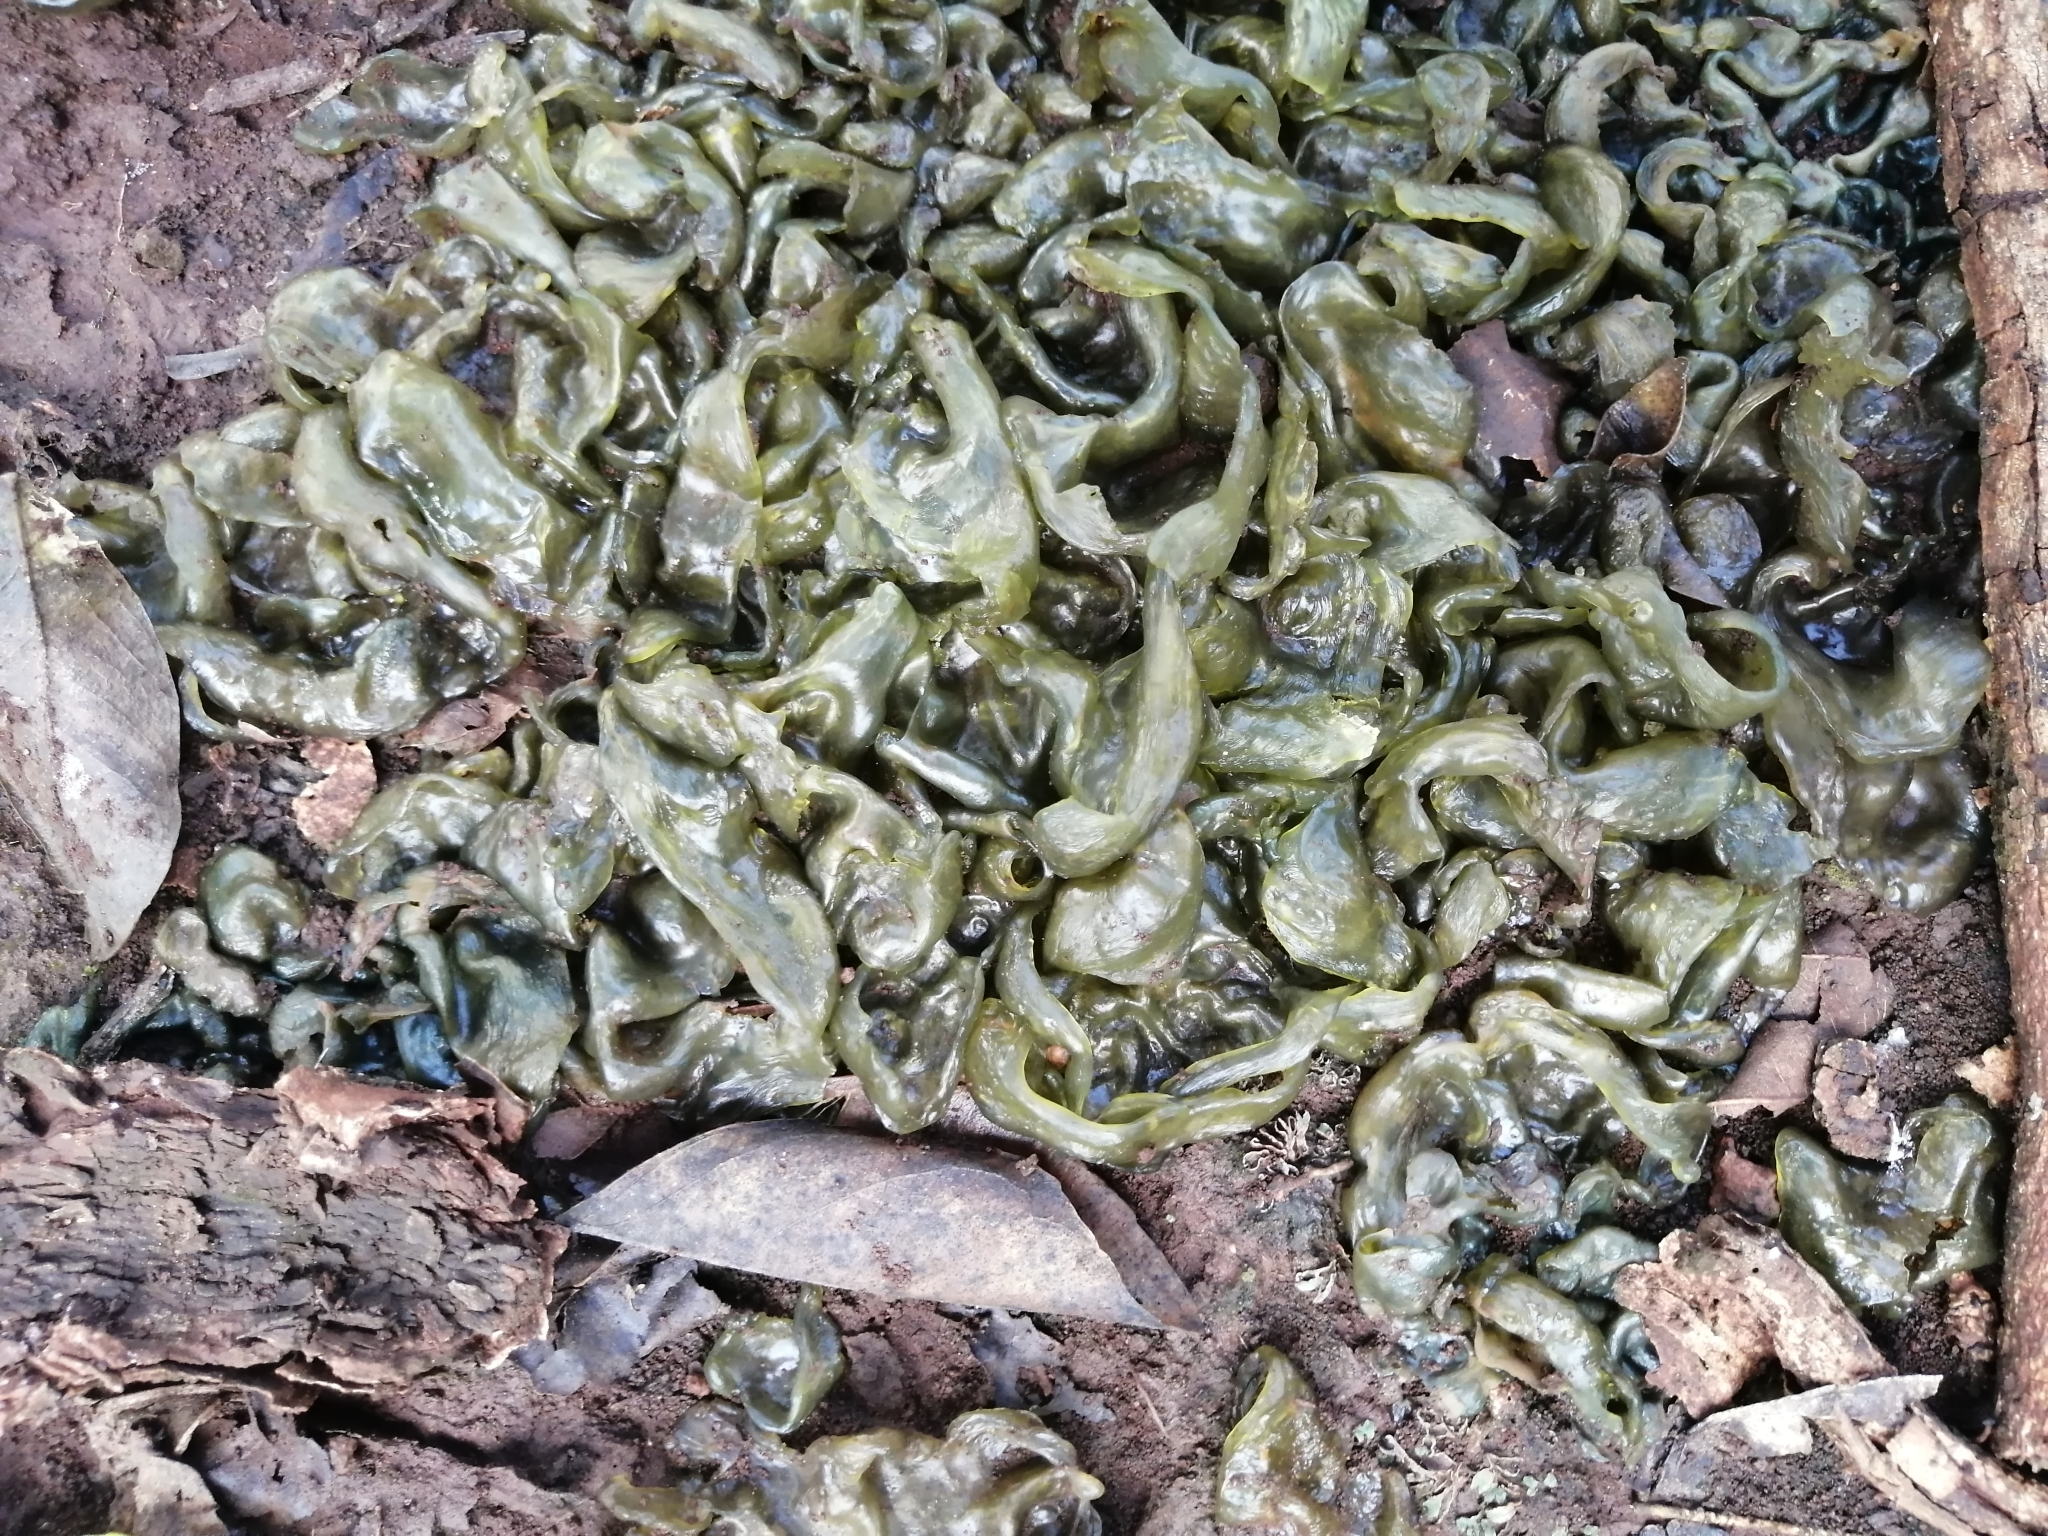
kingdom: Bacteria
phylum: Cyanobacteria
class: Cyanobacteriia
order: Cyanobacteriales
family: Nostocaceae
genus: Nostoc
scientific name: Nostoc commune
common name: Star jelly
